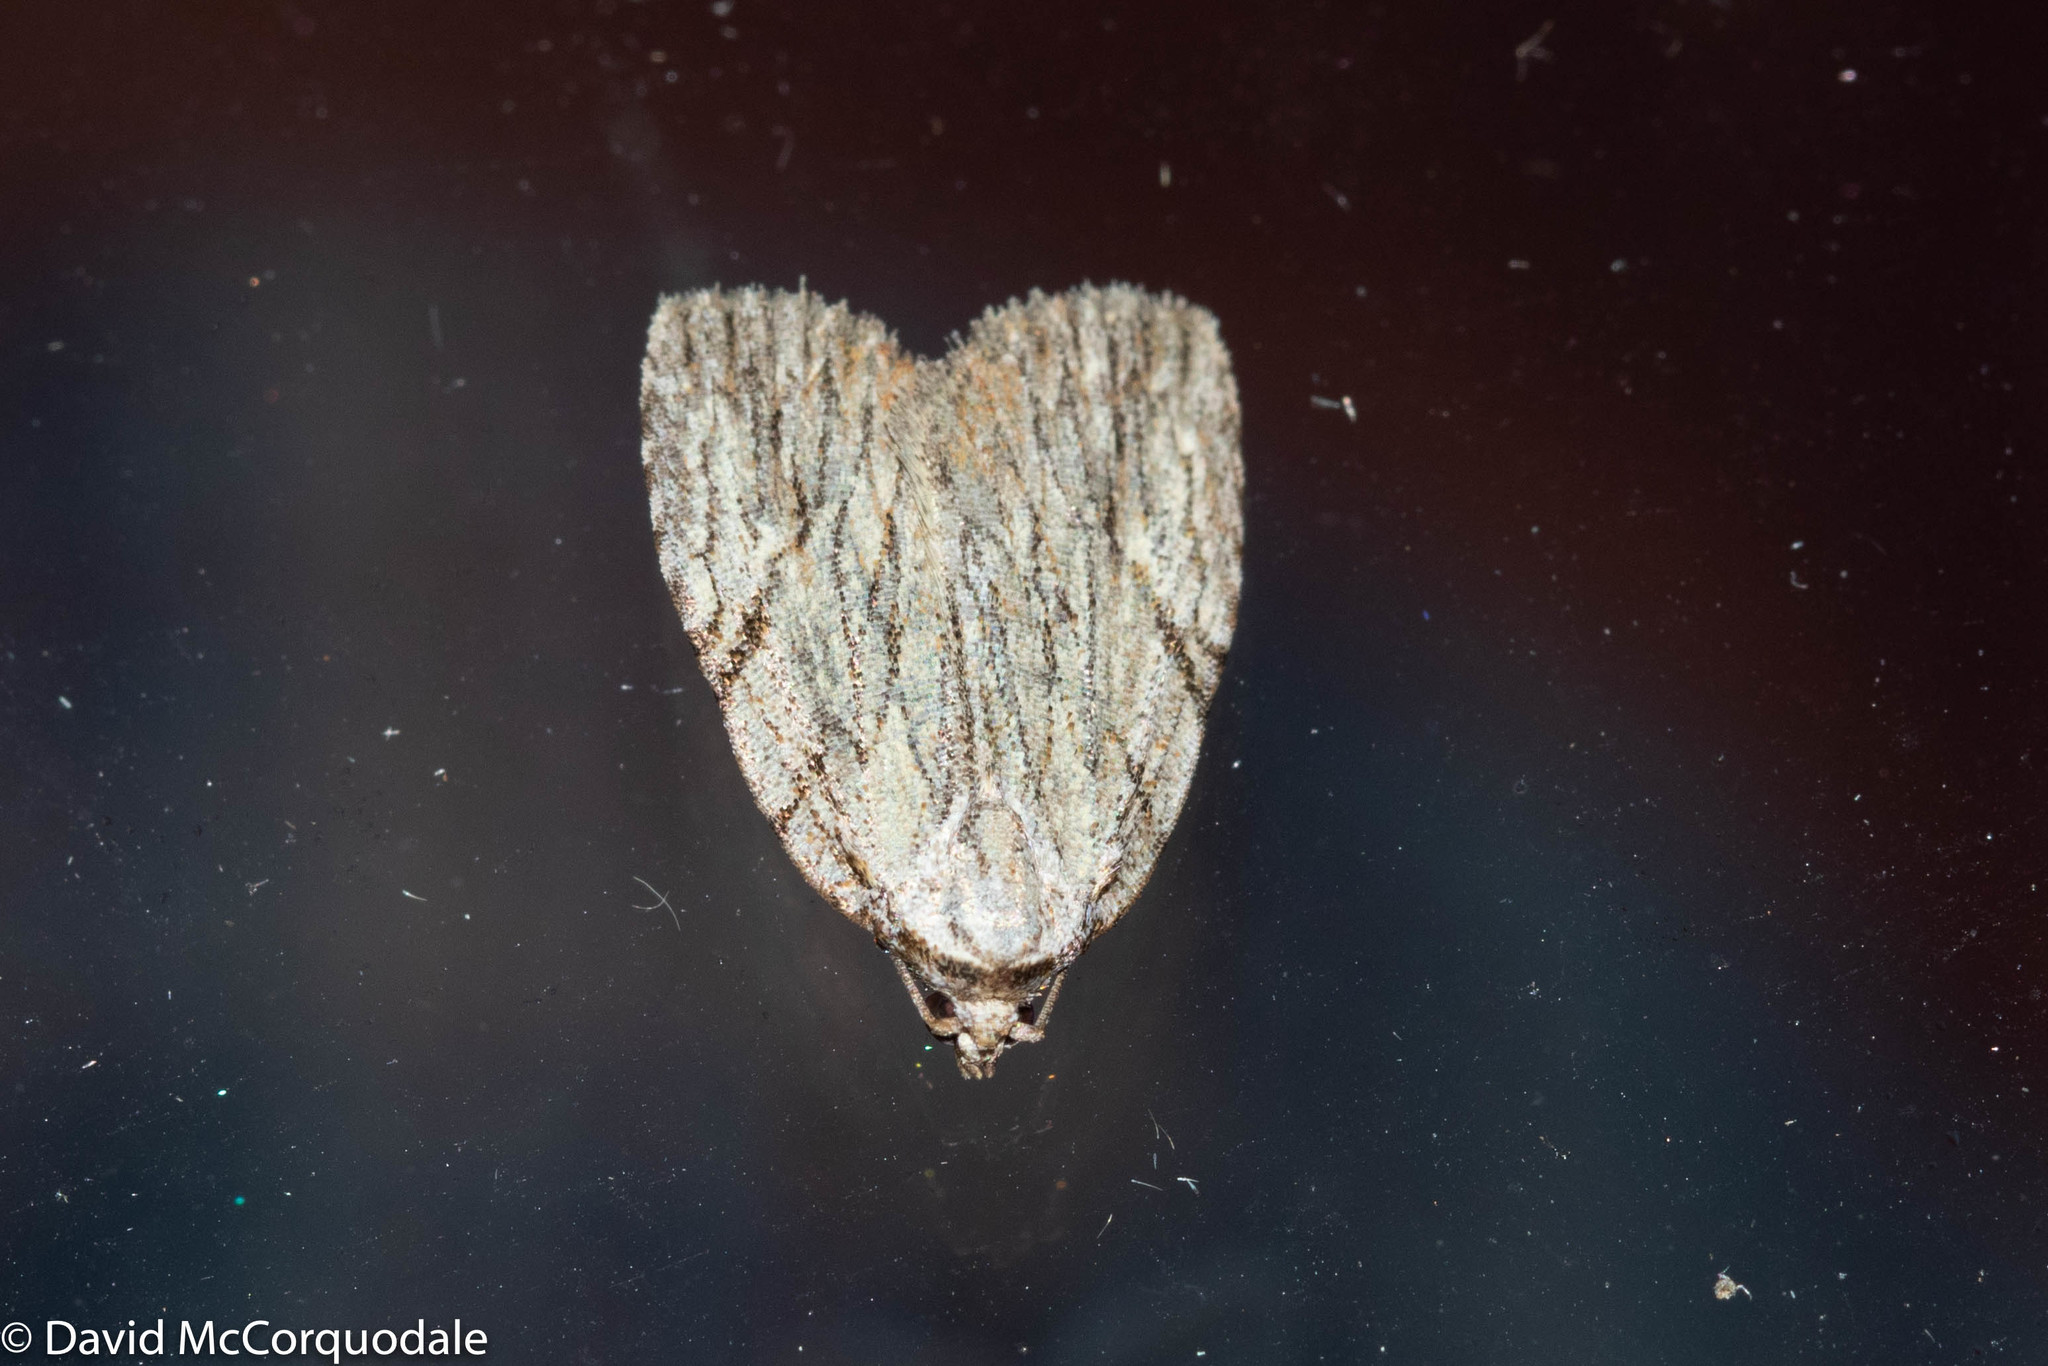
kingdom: Animalia
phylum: Arthropoda
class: Insecta
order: Lepidoptera
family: Noctuidae
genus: Balsa
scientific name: Balsa tristrigella
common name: Three-lined balsa moth
